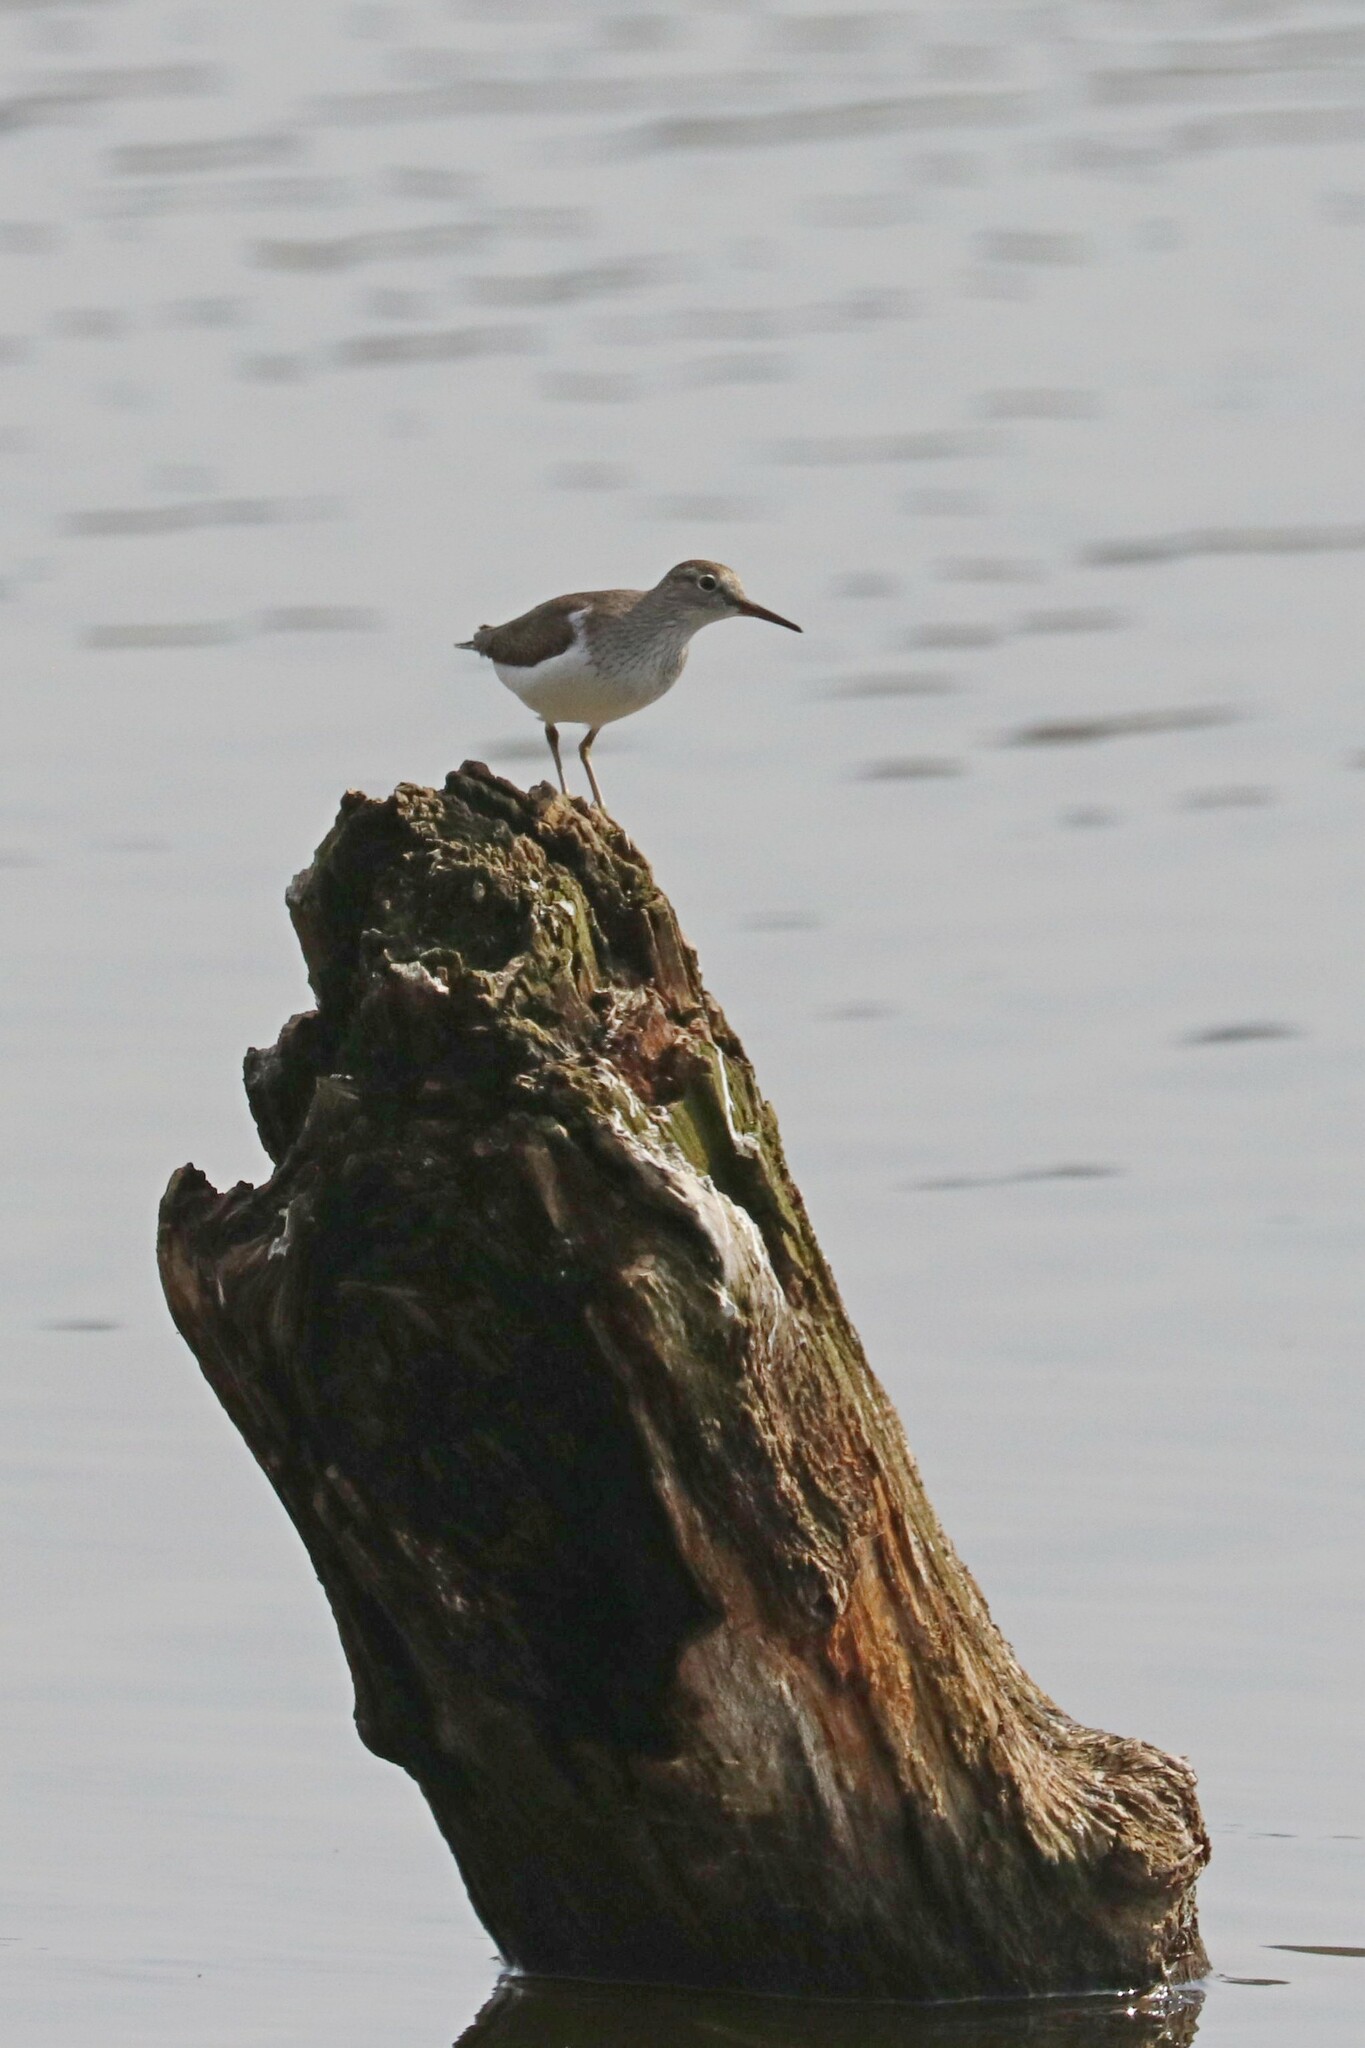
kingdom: Animalia
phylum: Chordata
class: Aves
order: Charadriiformes
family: Scolopacidae
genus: Actitis
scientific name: Actitis hypoleucos
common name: Common sandpiper
